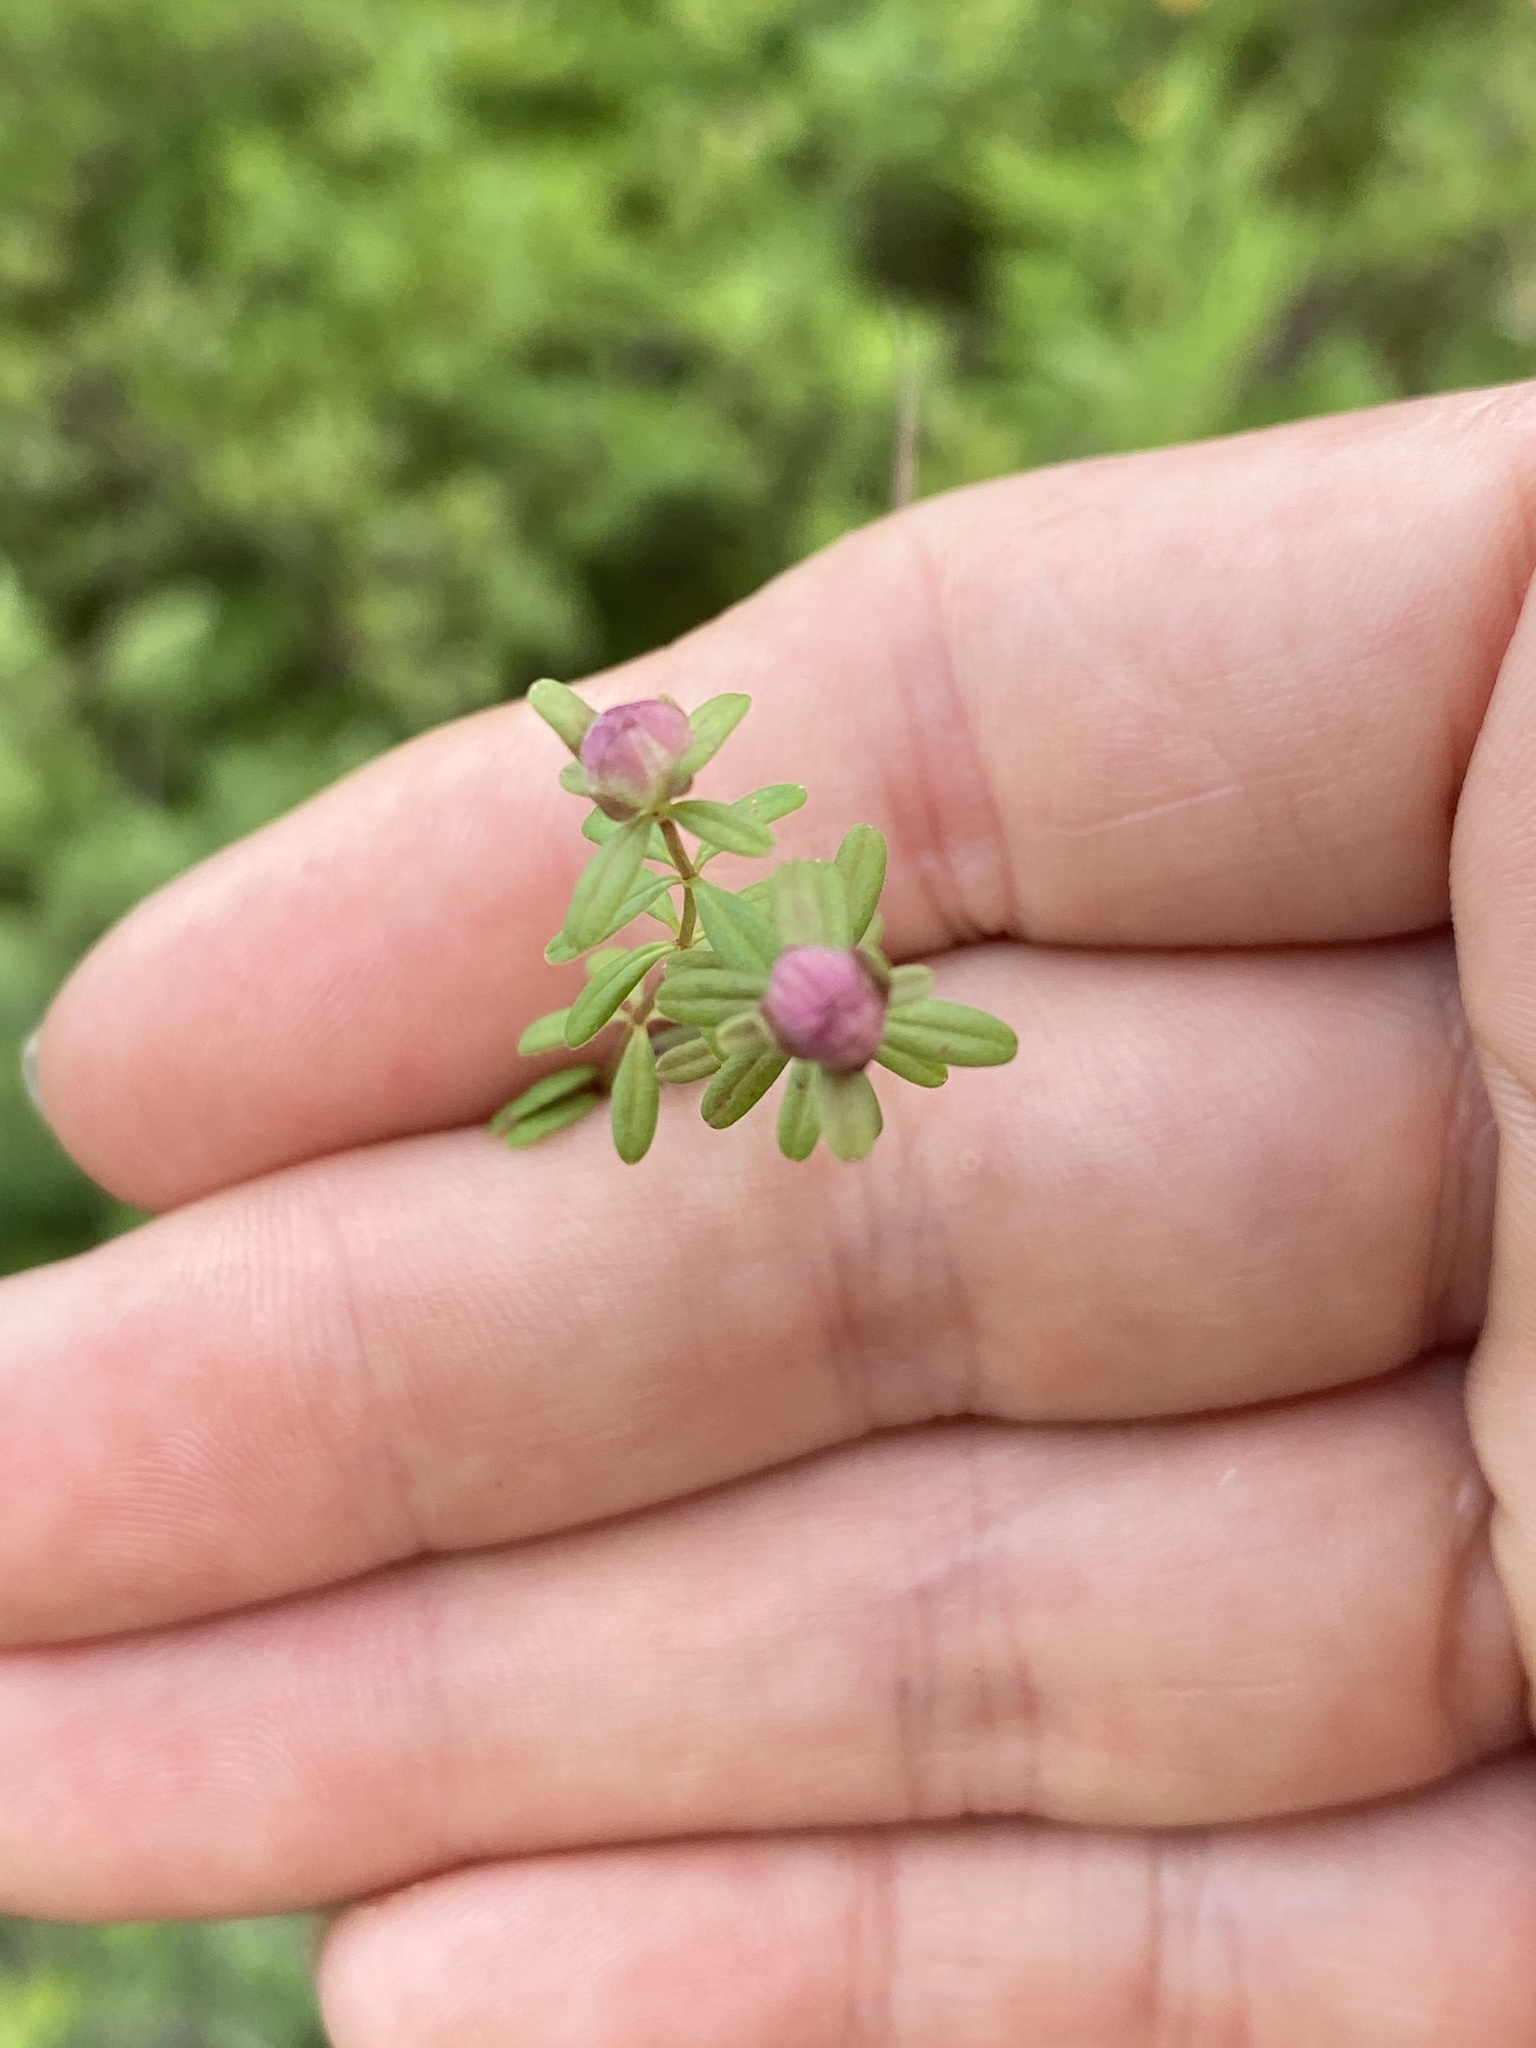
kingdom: Plantae
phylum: Tracheophyta
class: Magnoliopsida
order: Gentianales
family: Rubiaceae
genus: Galium
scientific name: Galium labradoricum
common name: Labrador bedstraw
